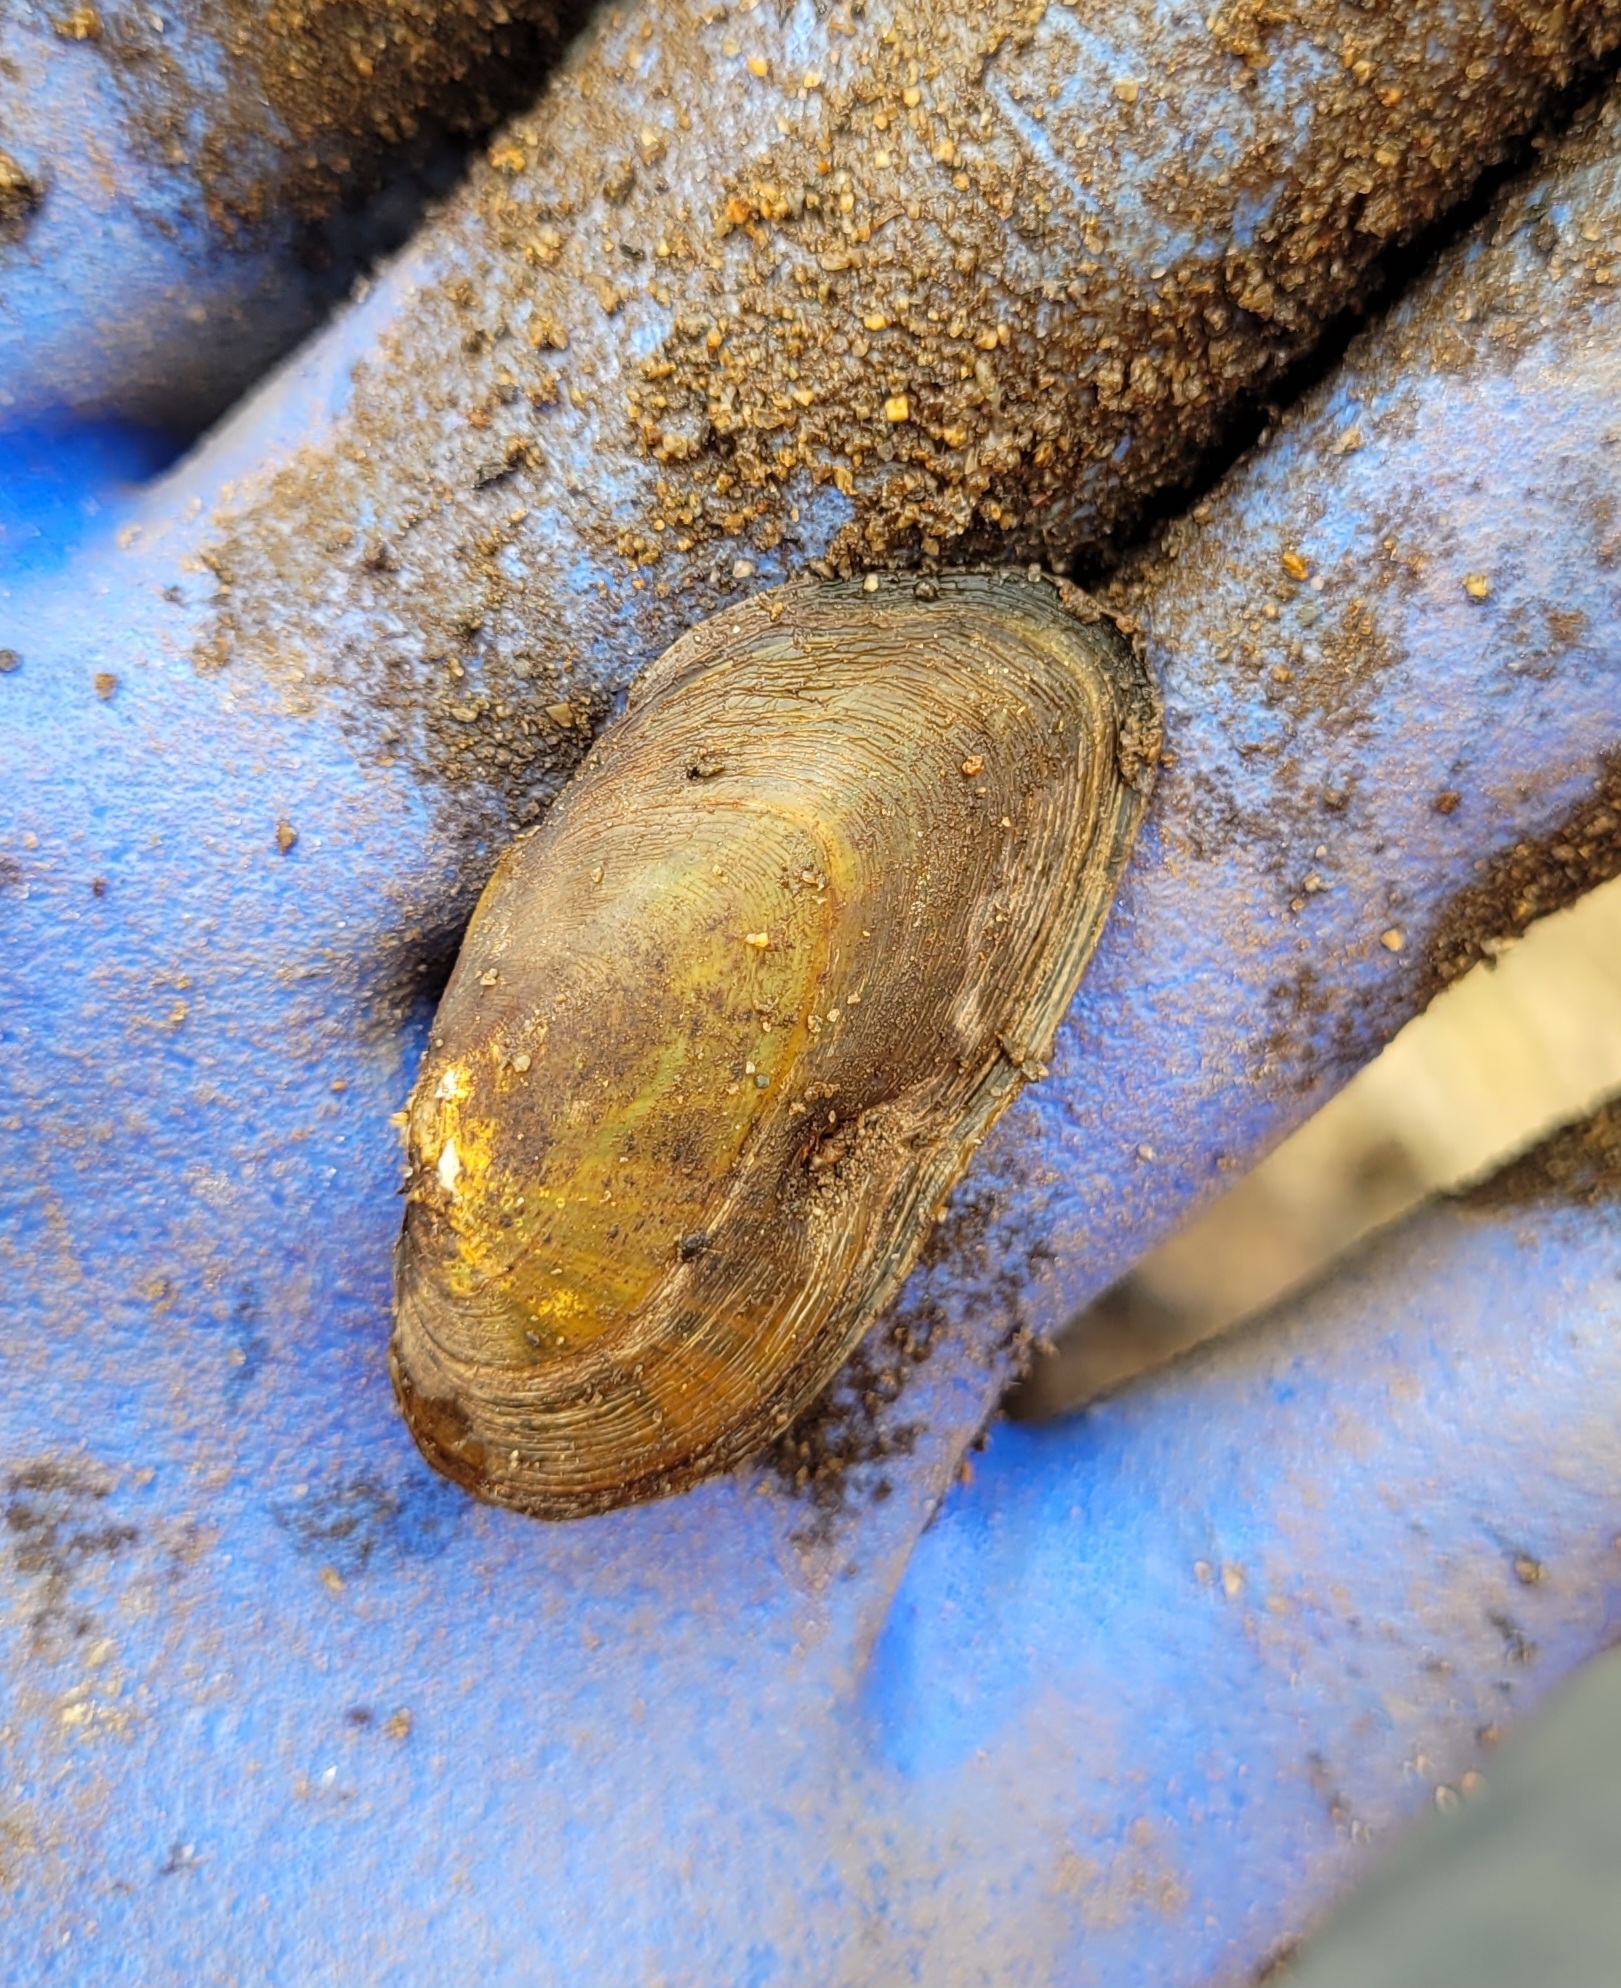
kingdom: Animalia
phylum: Mollusca
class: Bivalvia
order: Unionida
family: Unionidae
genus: Elliptio
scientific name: Elliptio complanata
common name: Eastern elliptio
